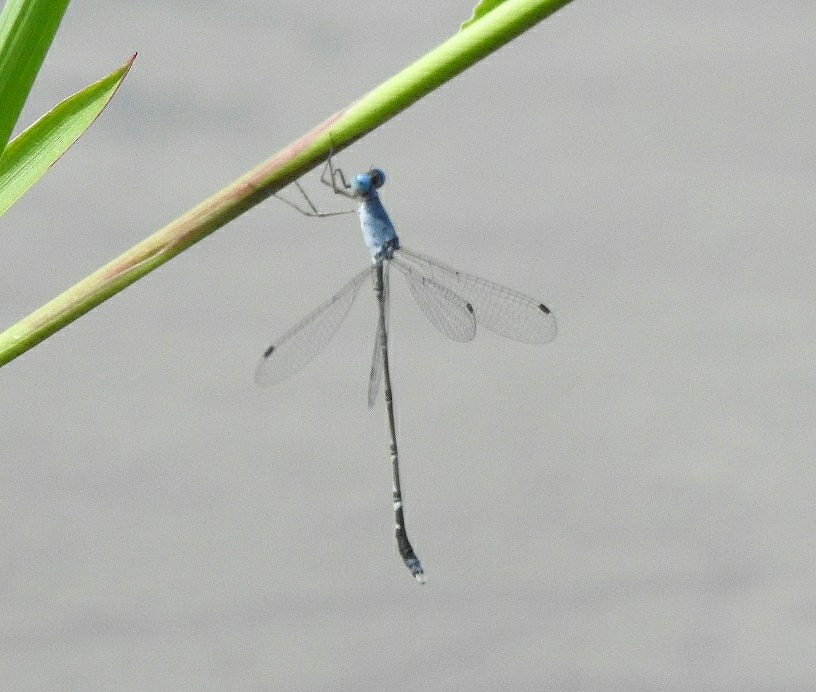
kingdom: Animalia
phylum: Arthropoda
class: Insecta
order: Odonata
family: Lestidae
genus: Lestes
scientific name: Lestes praemorsus
